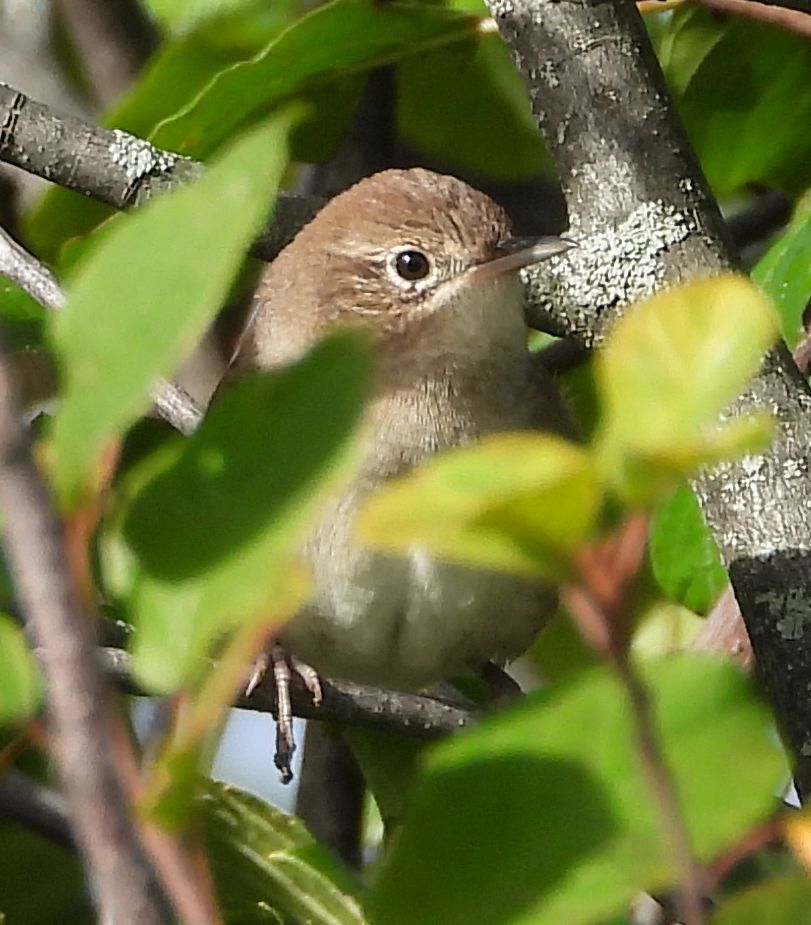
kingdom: Animalia
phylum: Chordata
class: Aves
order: Passeriformes
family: Troglodytidae
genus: Troglodytes
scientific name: Troglodytes aedon
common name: House wren
